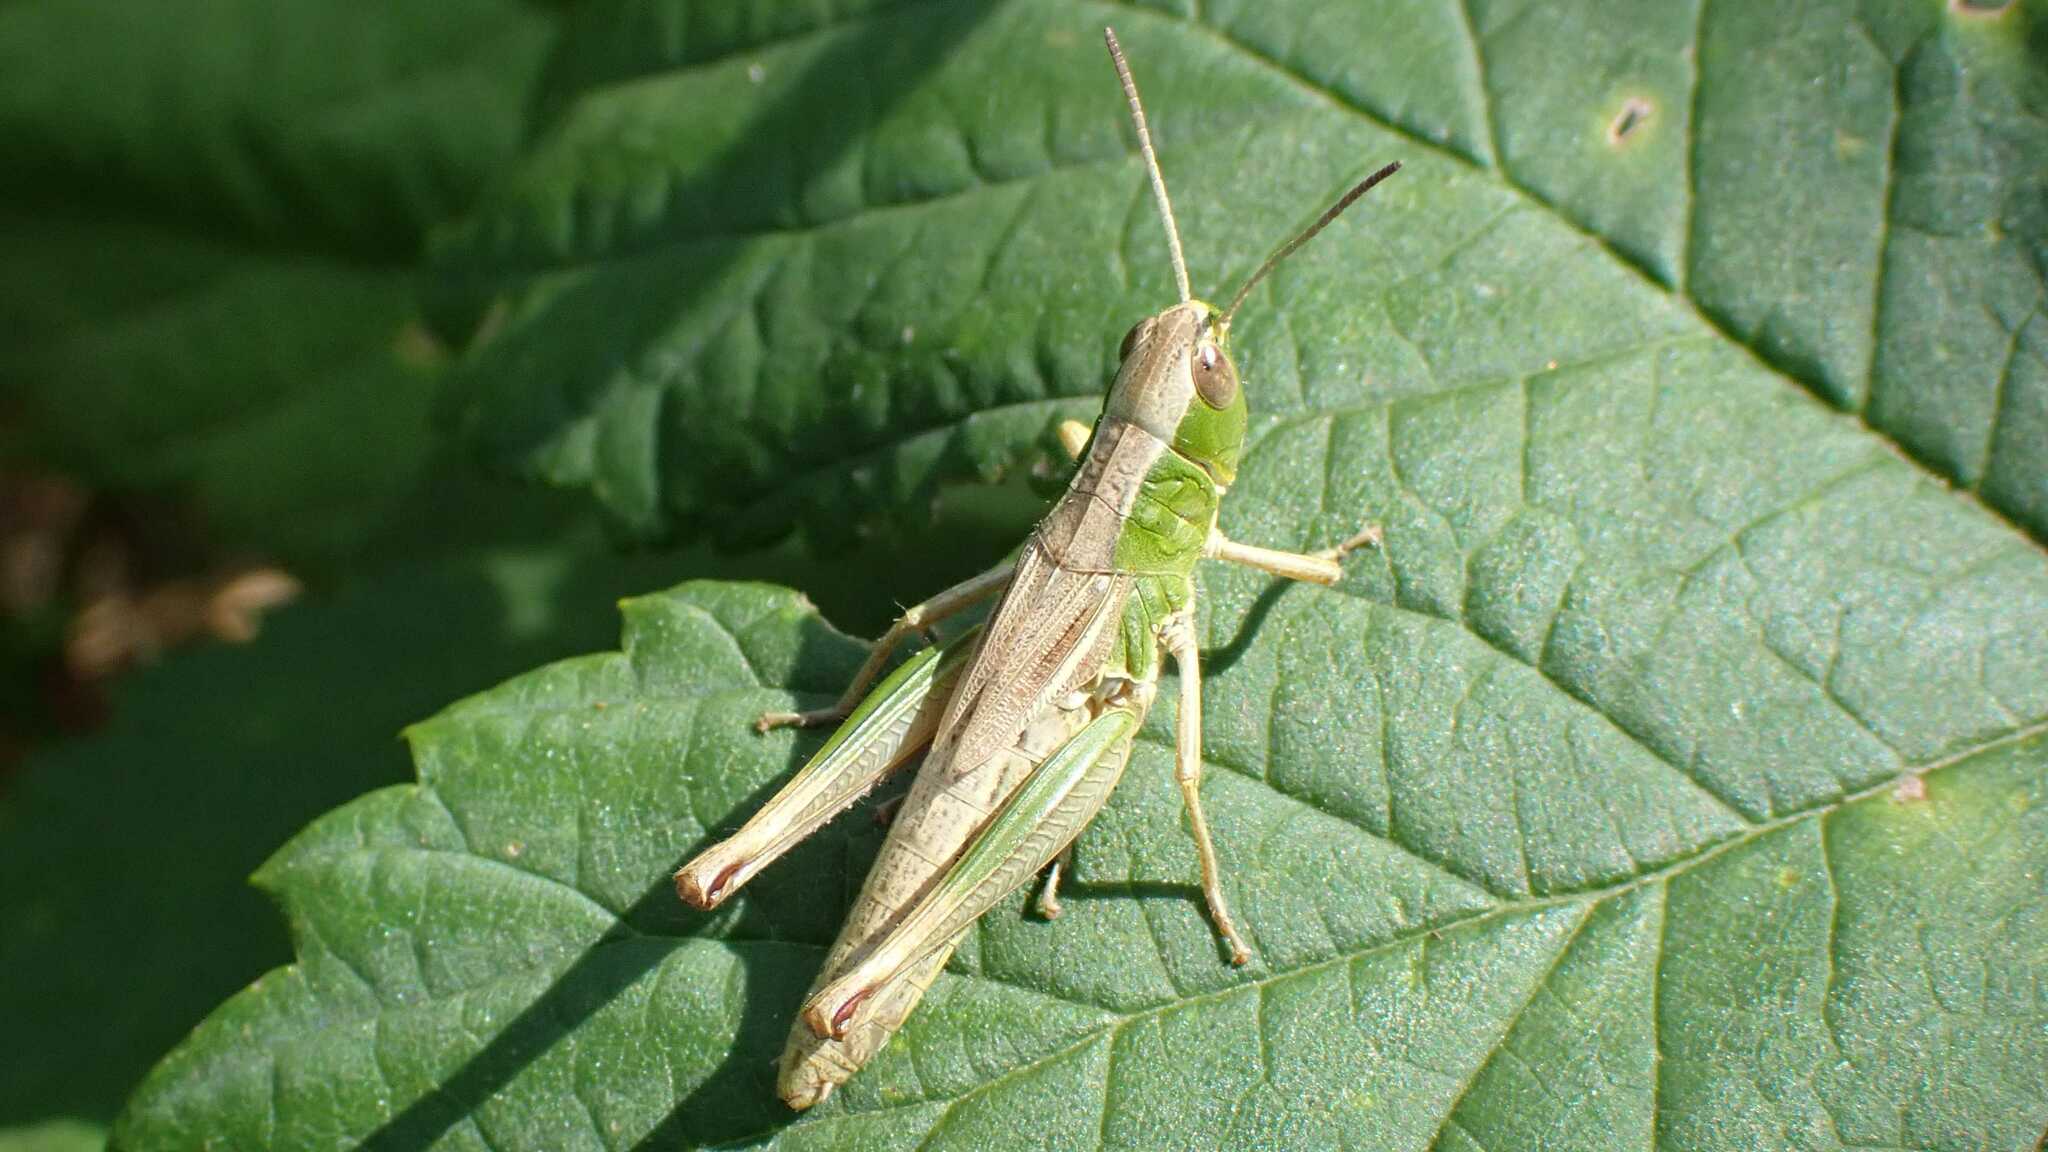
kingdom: Animalia
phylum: Arthropoda
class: Insecta
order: Orthoptera
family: Acrididae
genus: Pseudochorthippus
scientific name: Pseudochorthippus parallelus
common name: Meadow grasshopper
